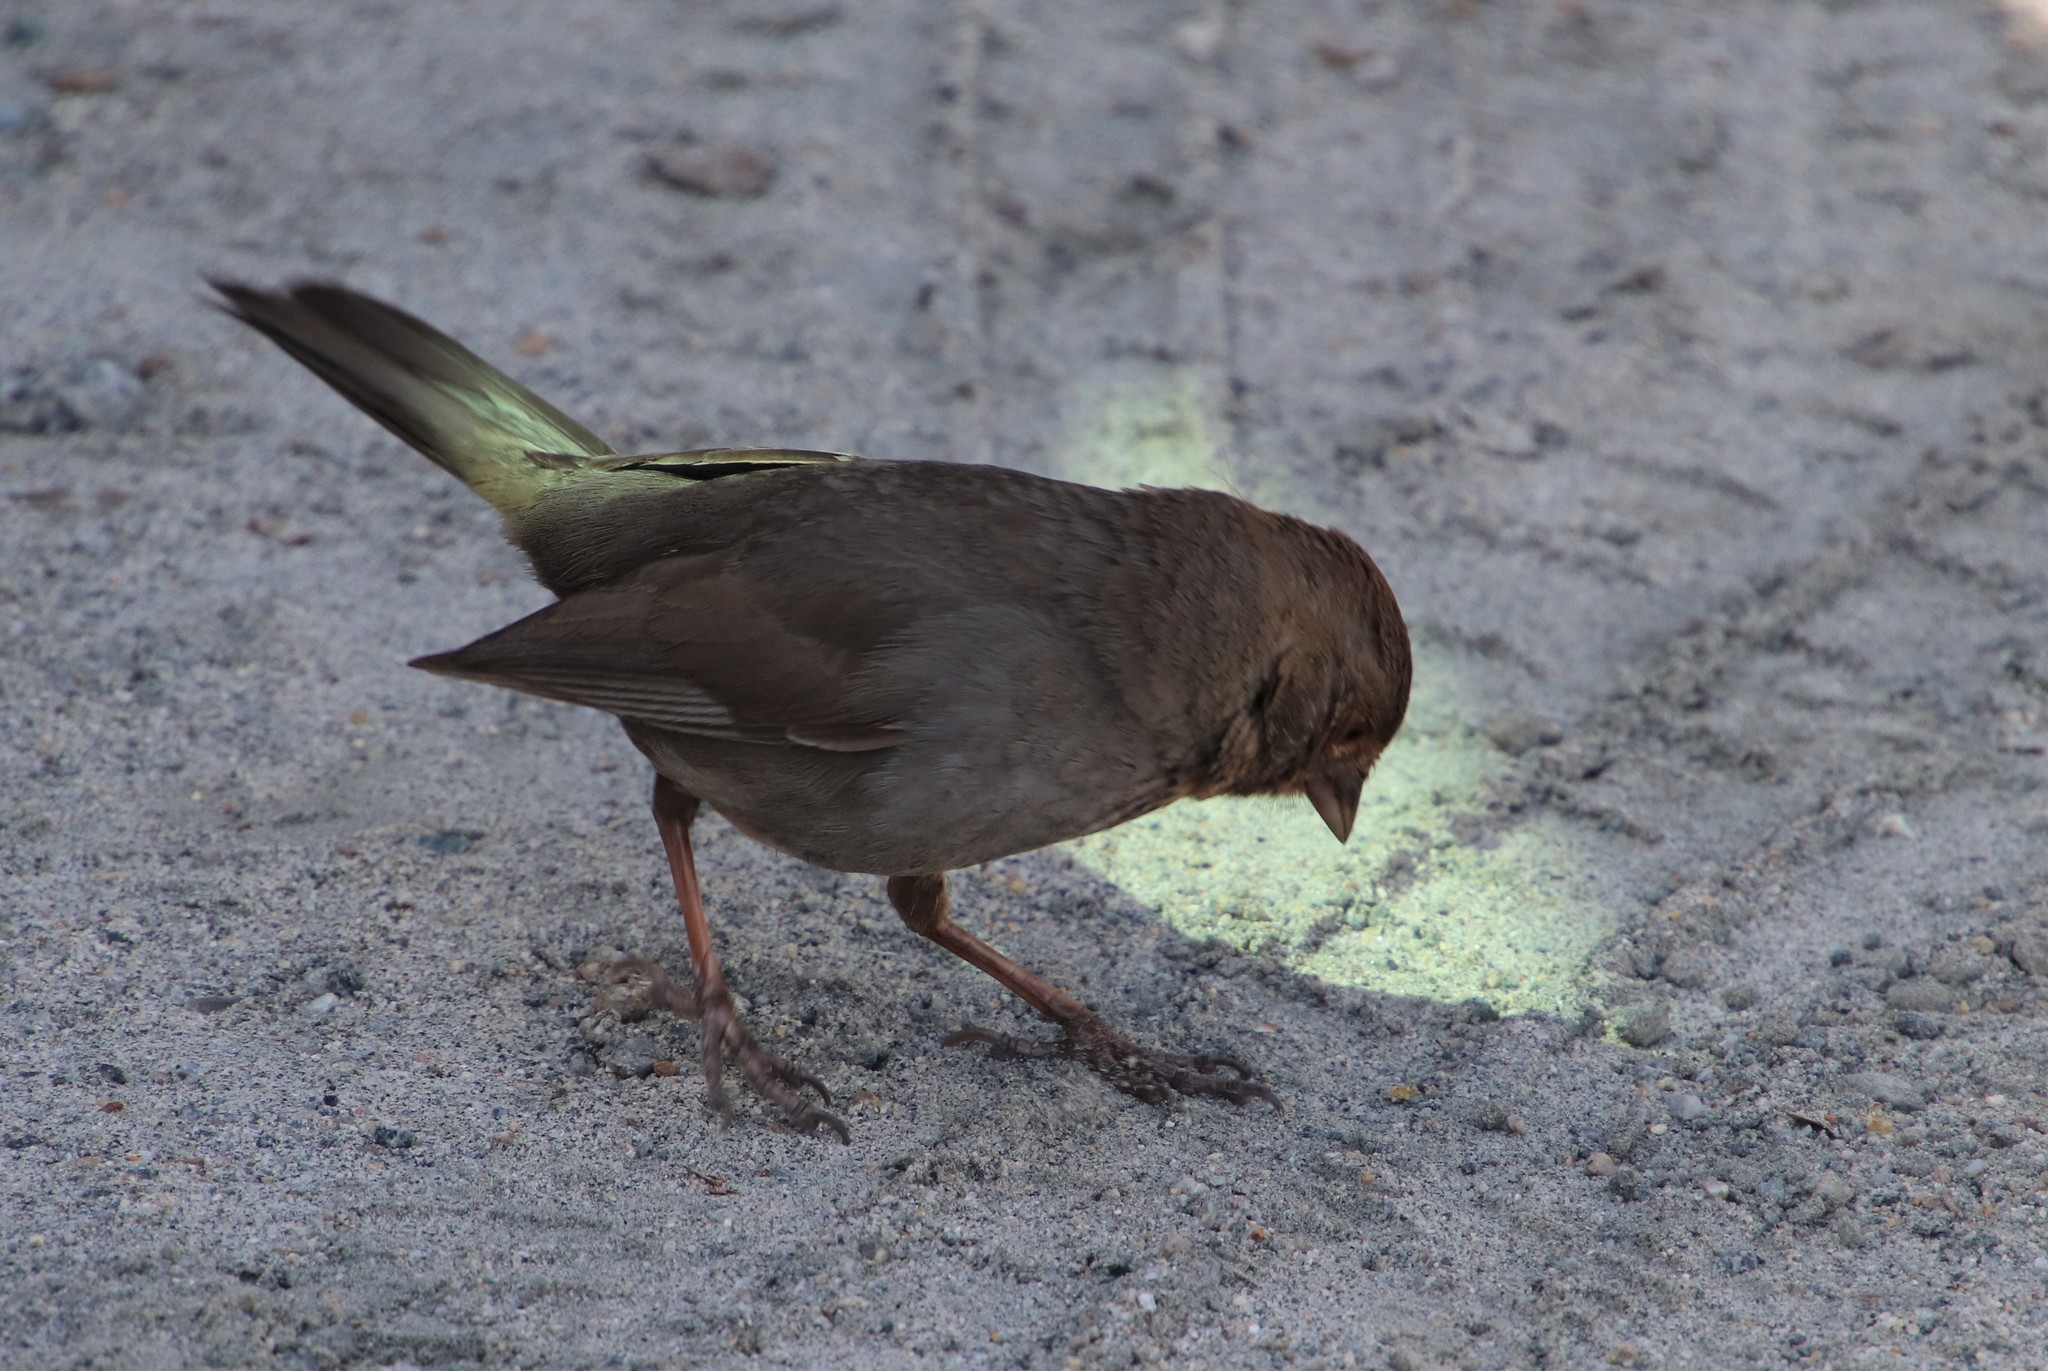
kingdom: Animalia
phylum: Chordata
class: Aves
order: Passeriformes
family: Passerellidae
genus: Melozone
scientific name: Melozone crissalis
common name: California towhee
